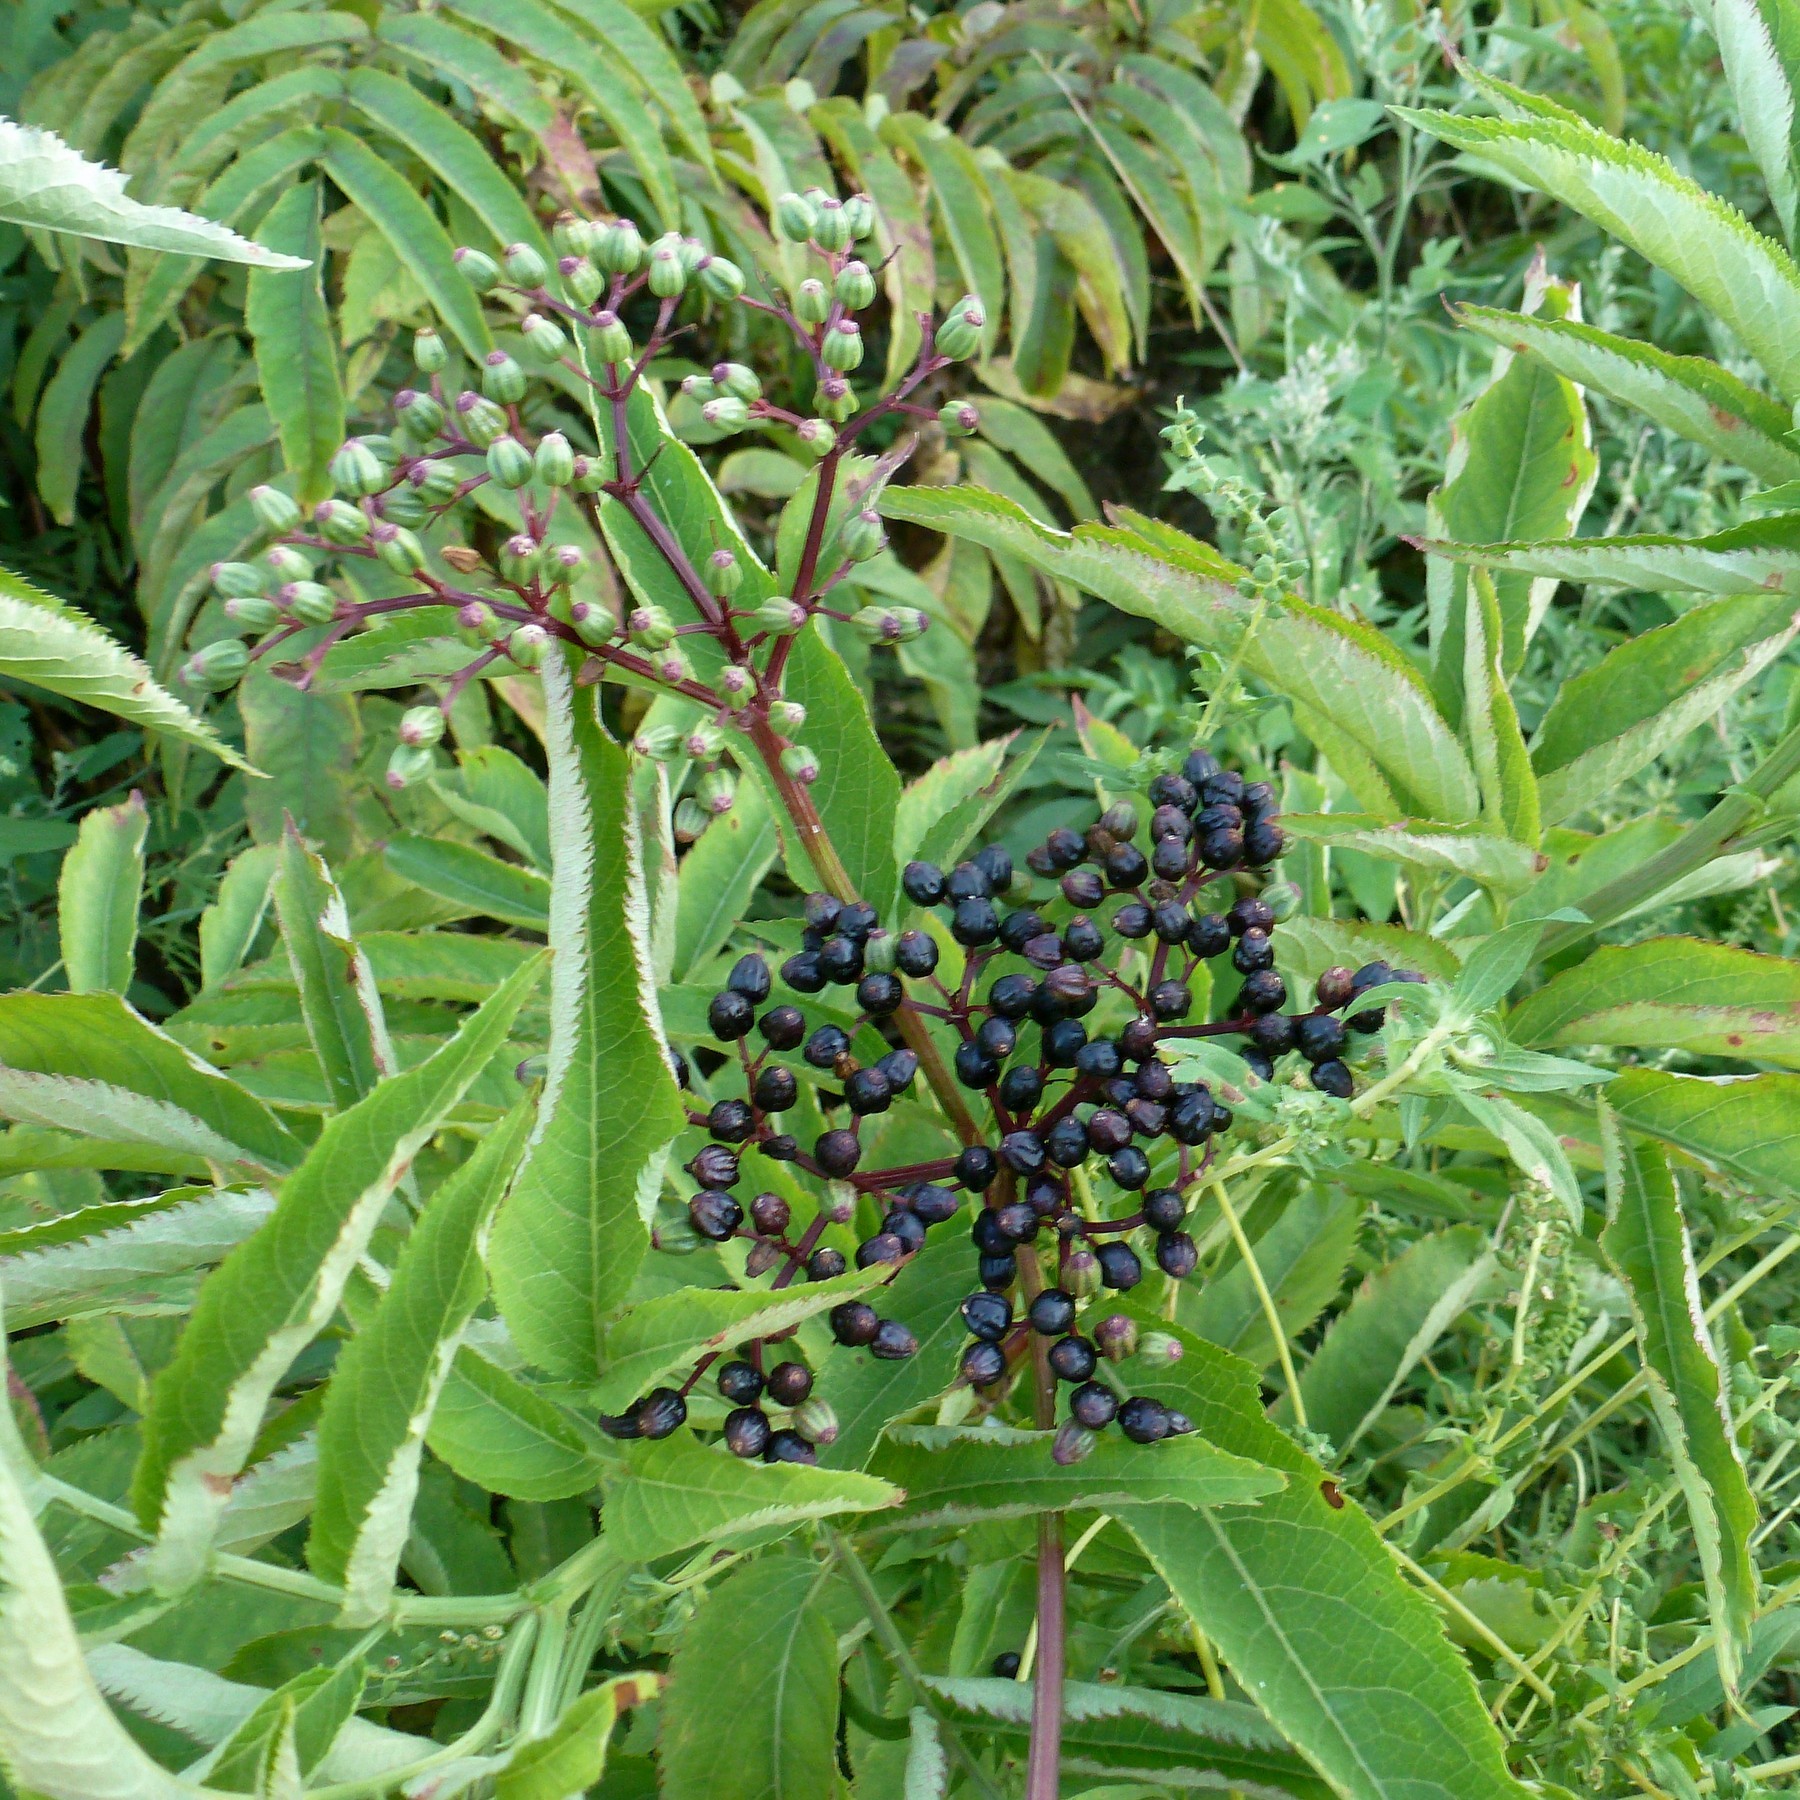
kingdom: Plantae
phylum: Tracheophyta
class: Magnoliopsida
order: Dipsacales
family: Viburnaceae
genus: Sambucus
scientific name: Sambucus ebulus
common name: Dwarf elder
